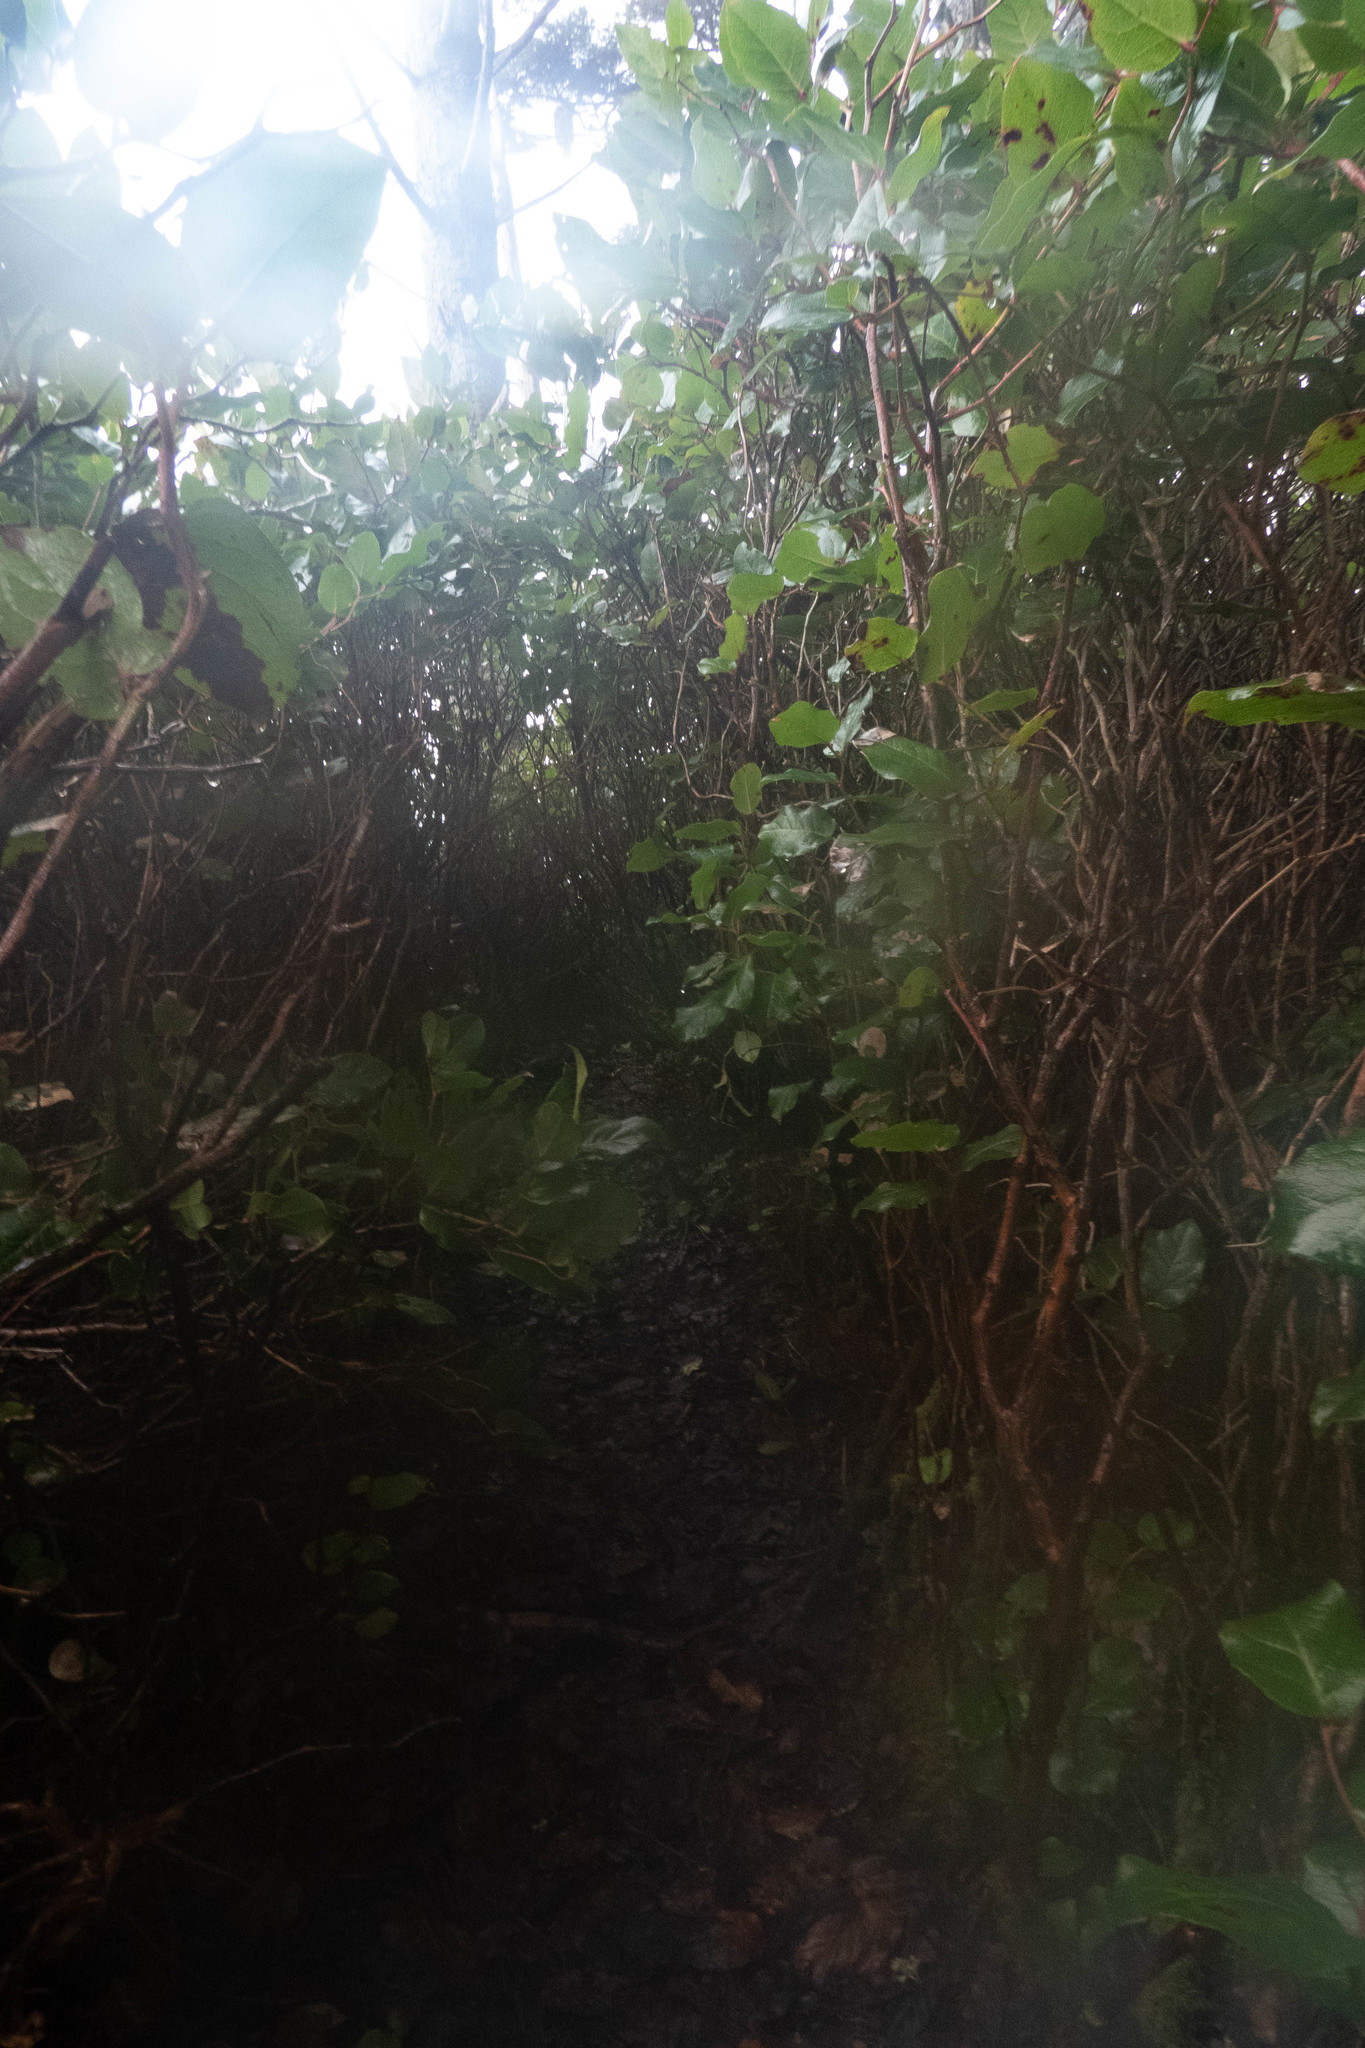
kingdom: Plantae
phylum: Tracheophyta
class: Magnoliopsida
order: Ericales
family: Ericaceae
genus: Gaultheria
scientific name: Gaultheria shallon
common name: Shallon
